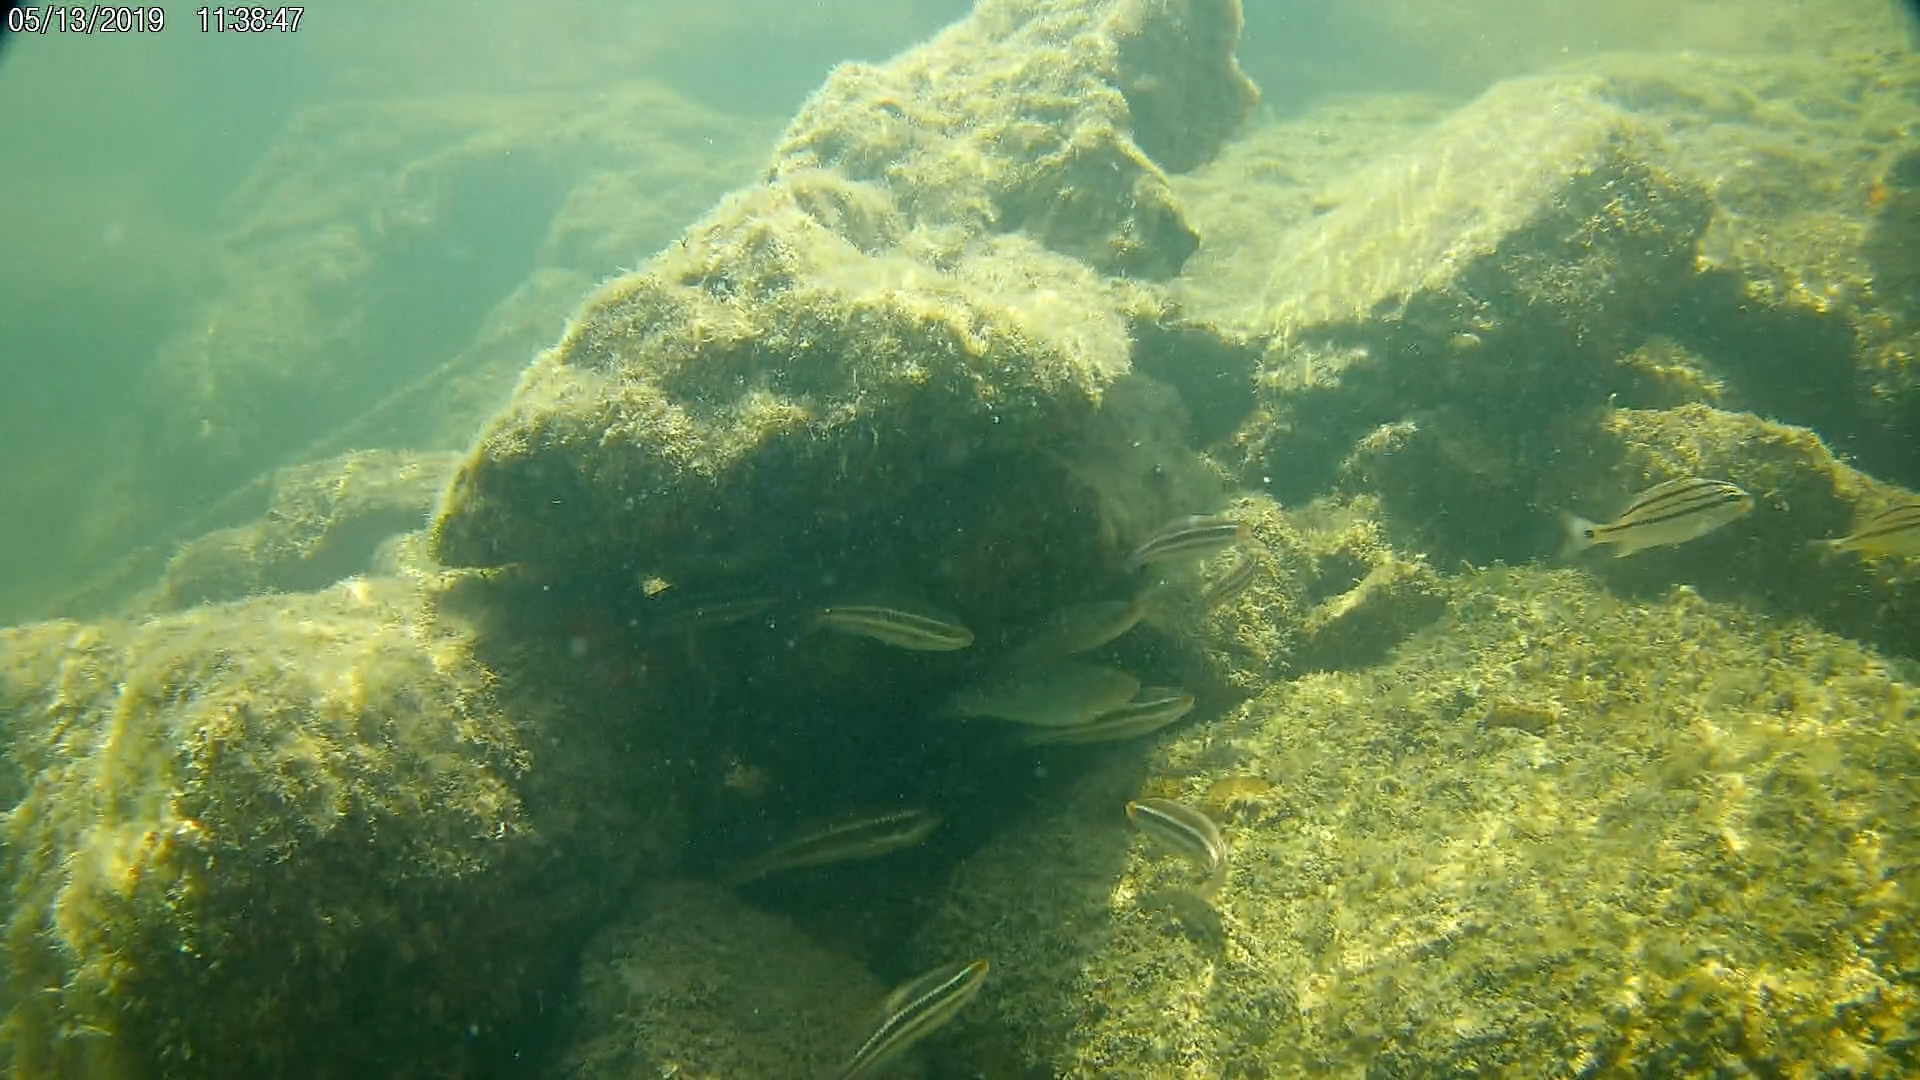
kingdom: Animalia
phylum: Chordata
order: Perciformes
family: Scaridae
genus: Scarus
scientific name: Scarus iseri
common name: Striped parrotfish
